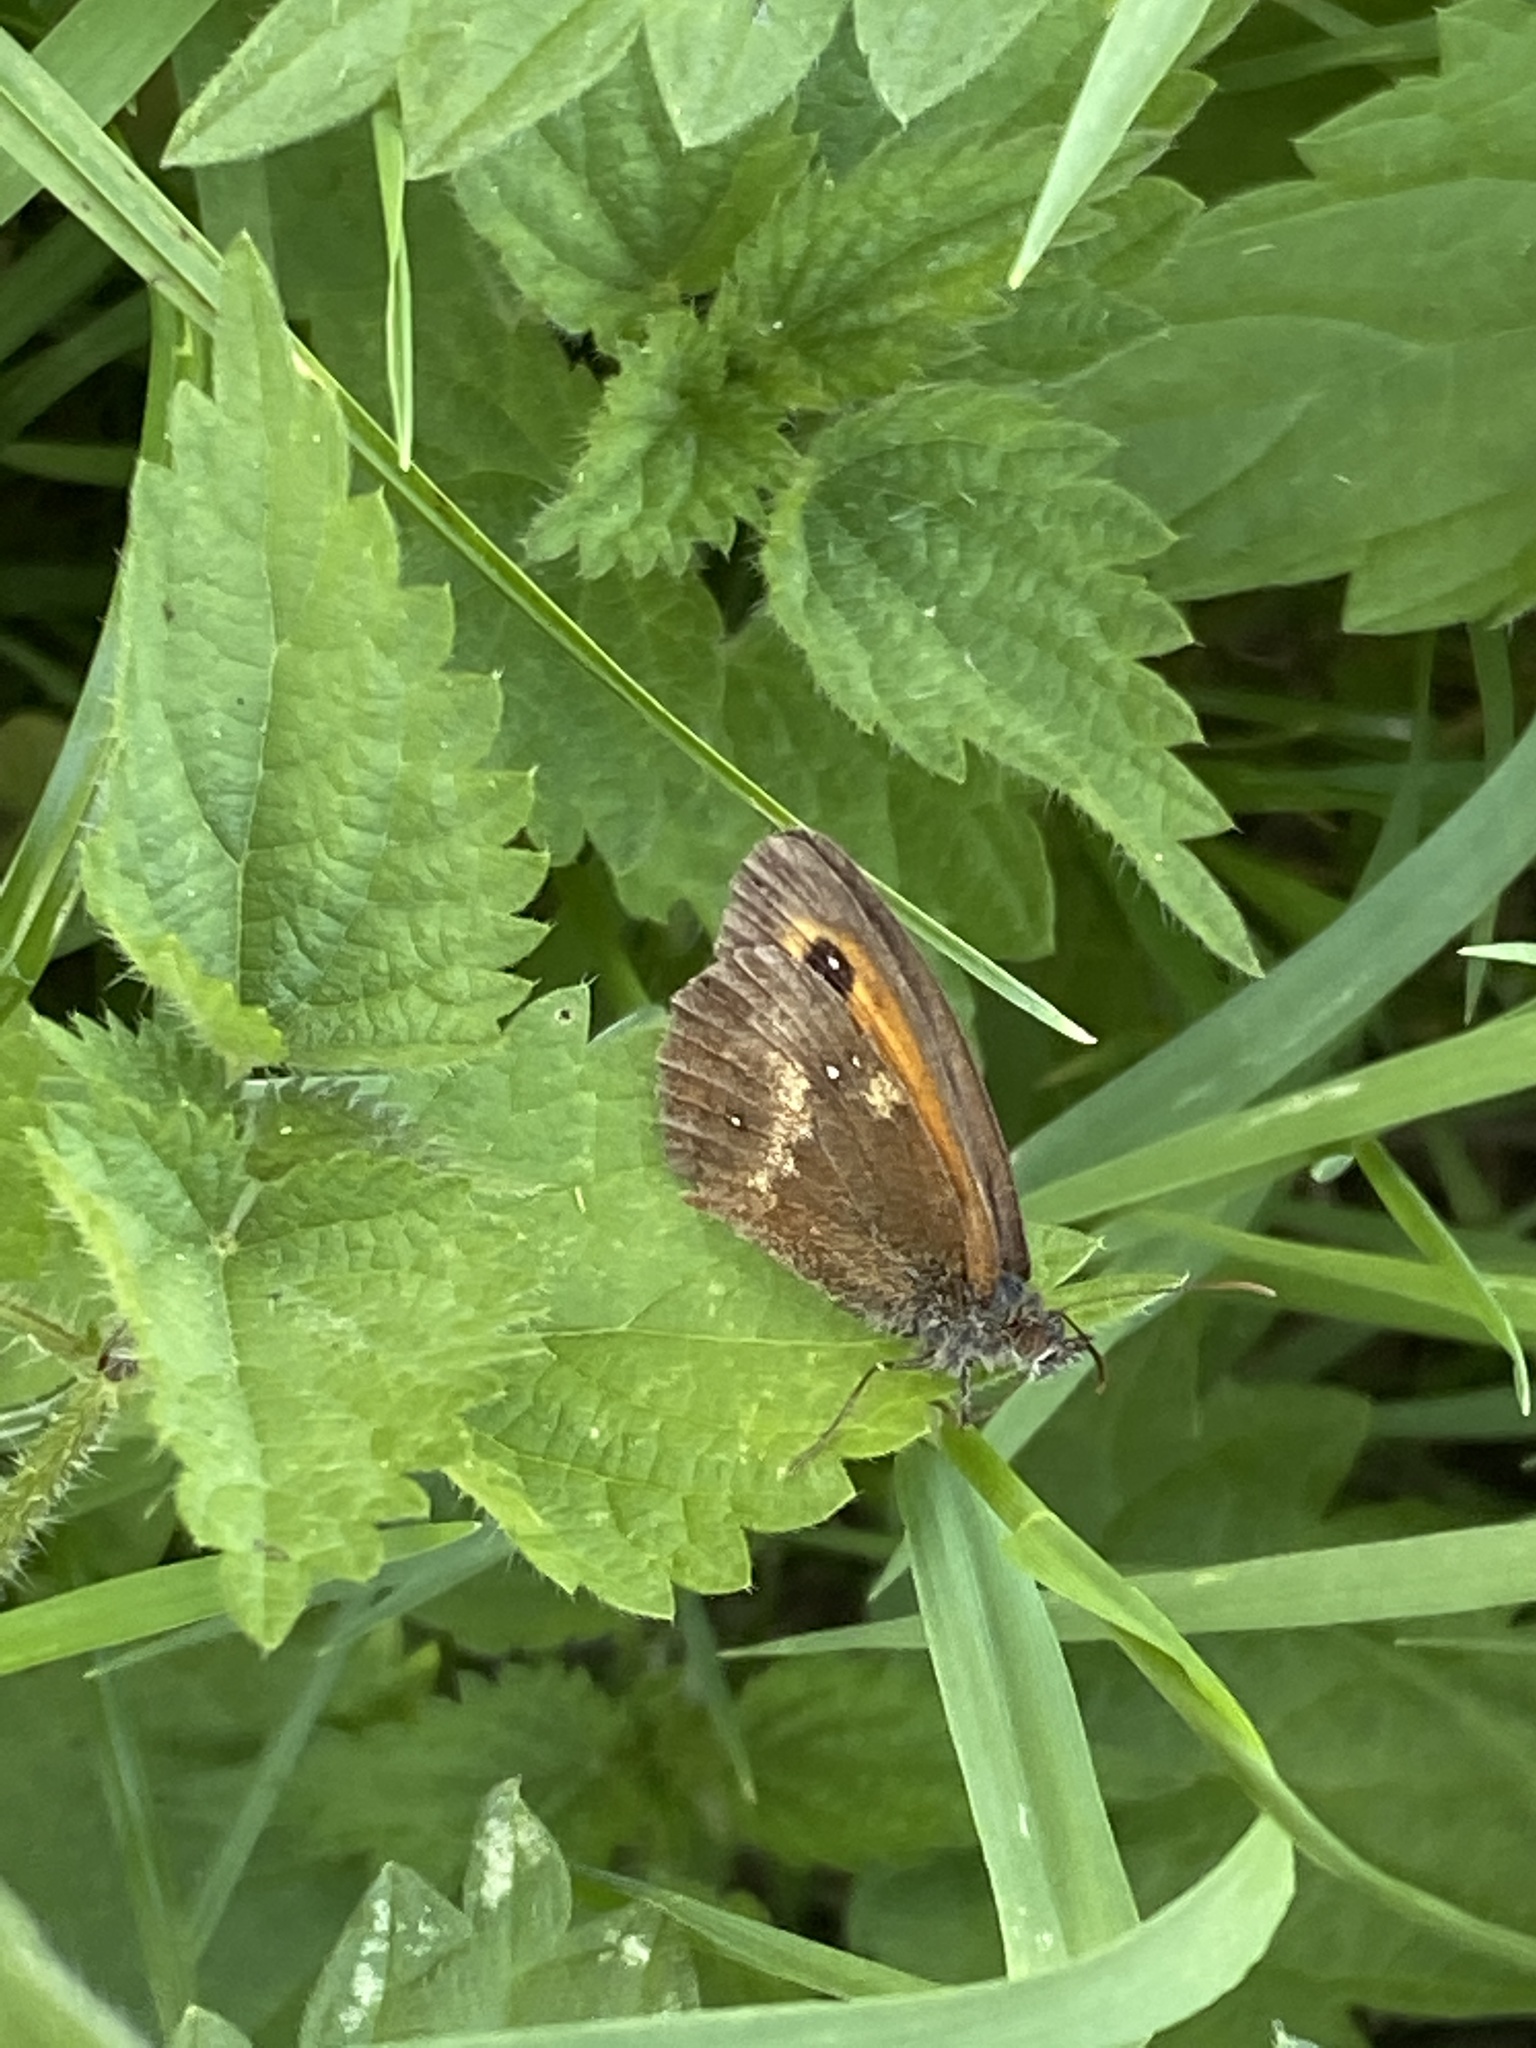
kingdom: Animalia
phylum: Arthropoda
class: Insecta
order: Lepidoptera
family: Nymphalidae
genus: Pyronia
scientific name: Pyronia tithonus
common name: Gatekeeper
